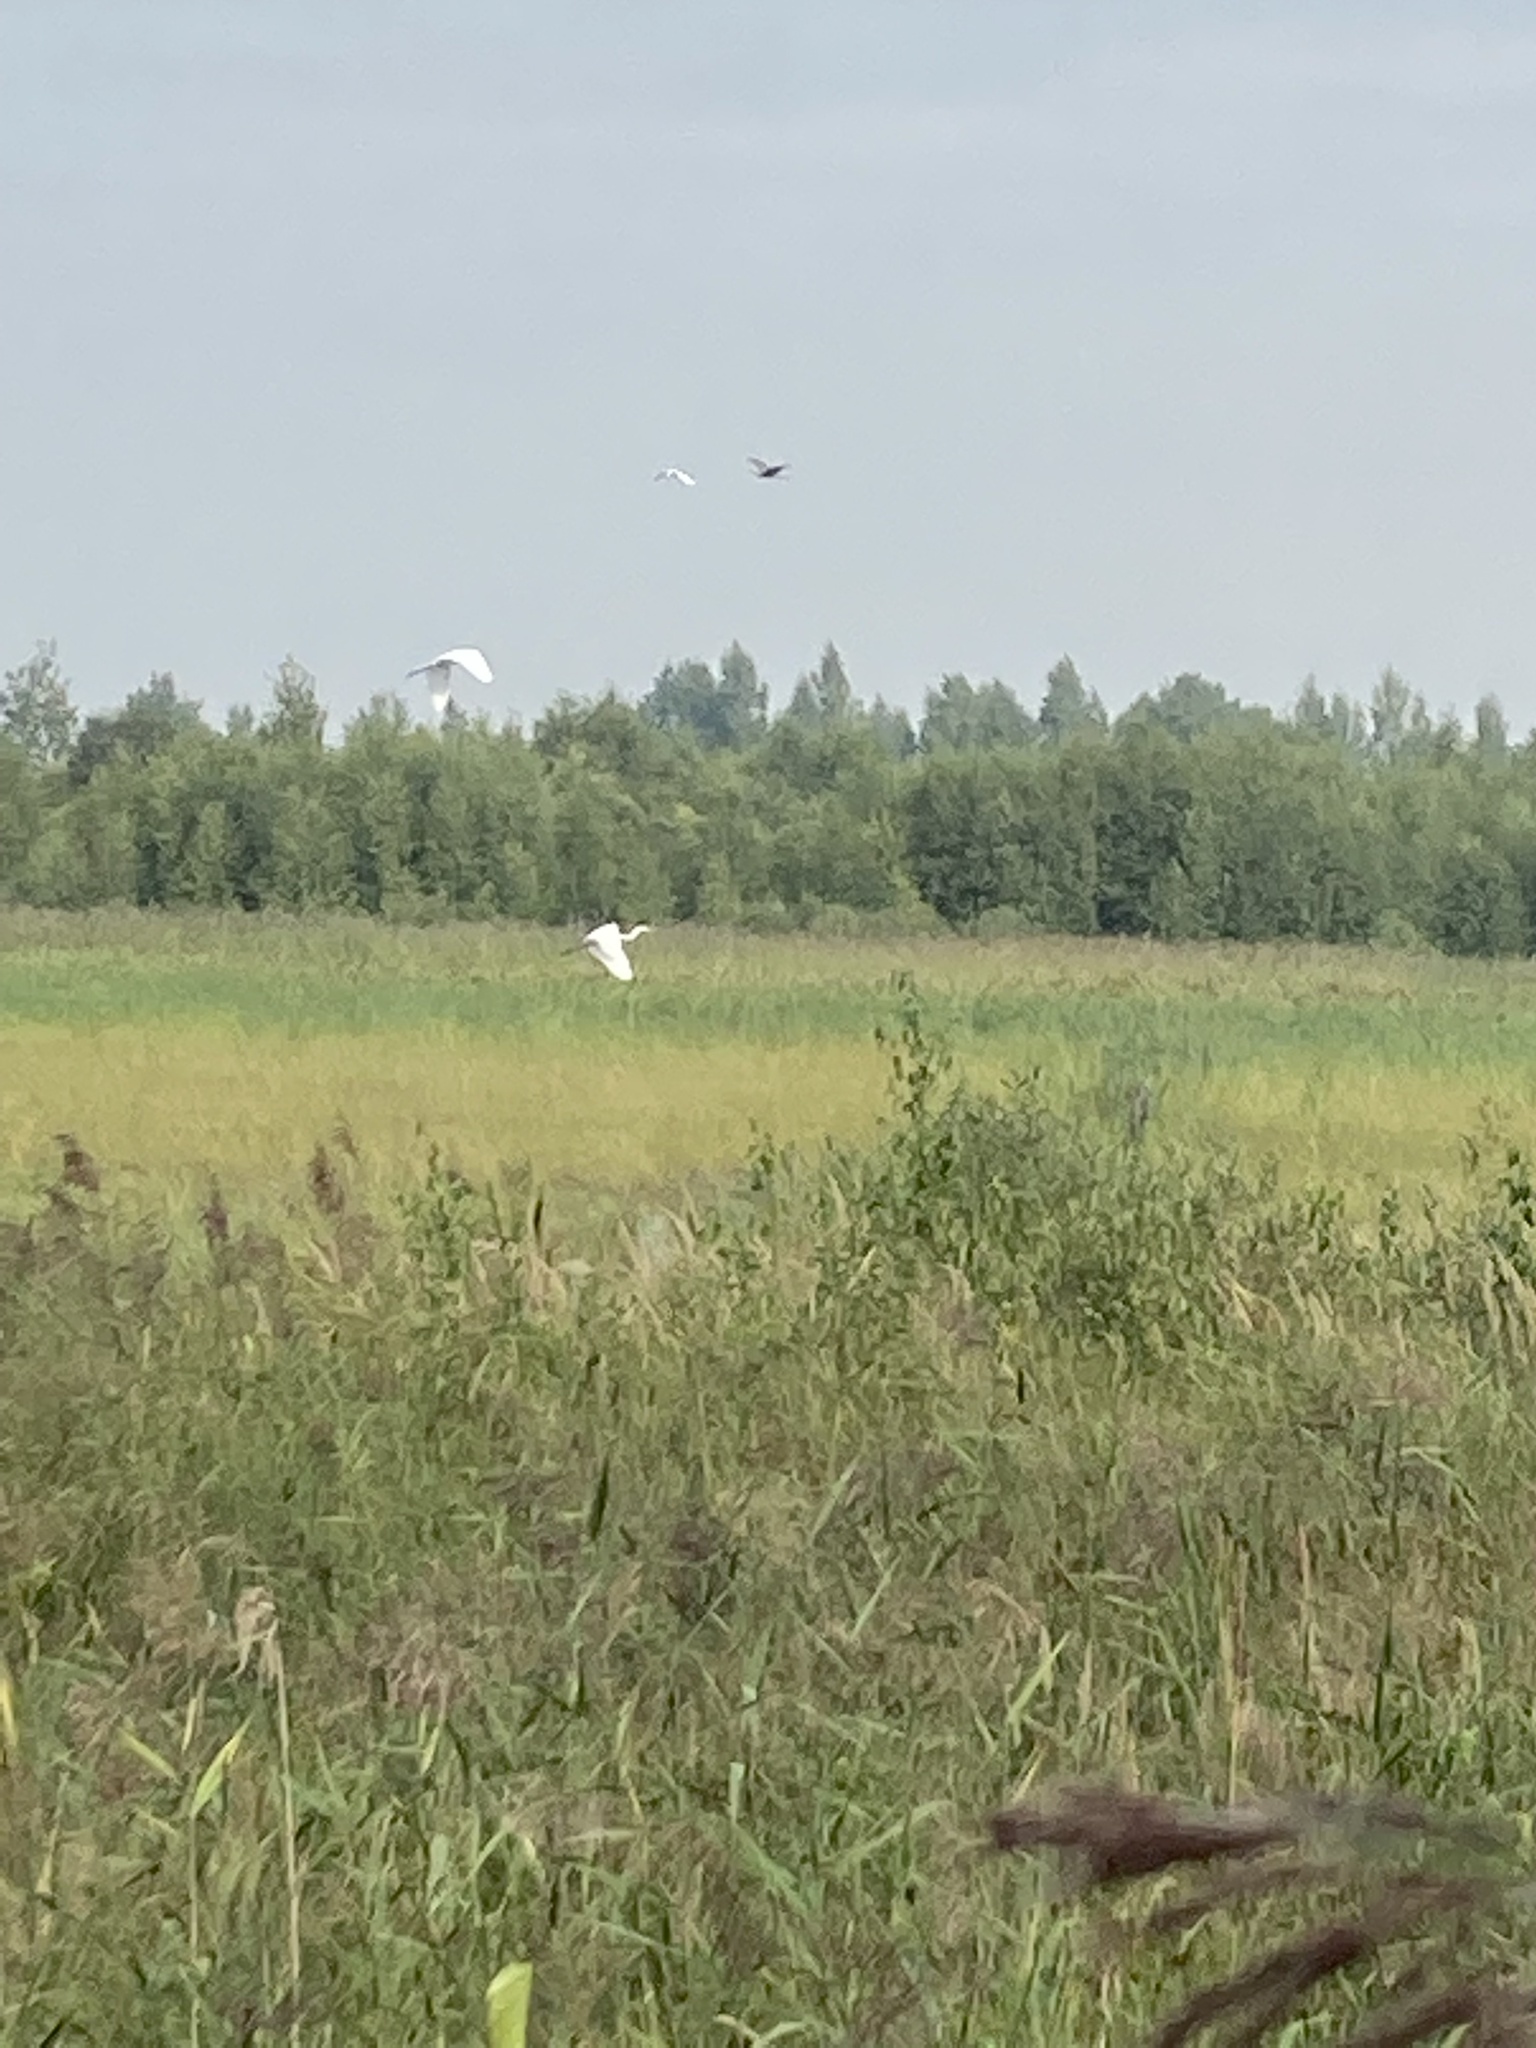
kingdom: Animalia
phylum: Chordata
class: Aves
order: Pelecaniformes
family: Ardeidae
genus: Ardea
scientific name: Ardea alba
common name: Great egret
